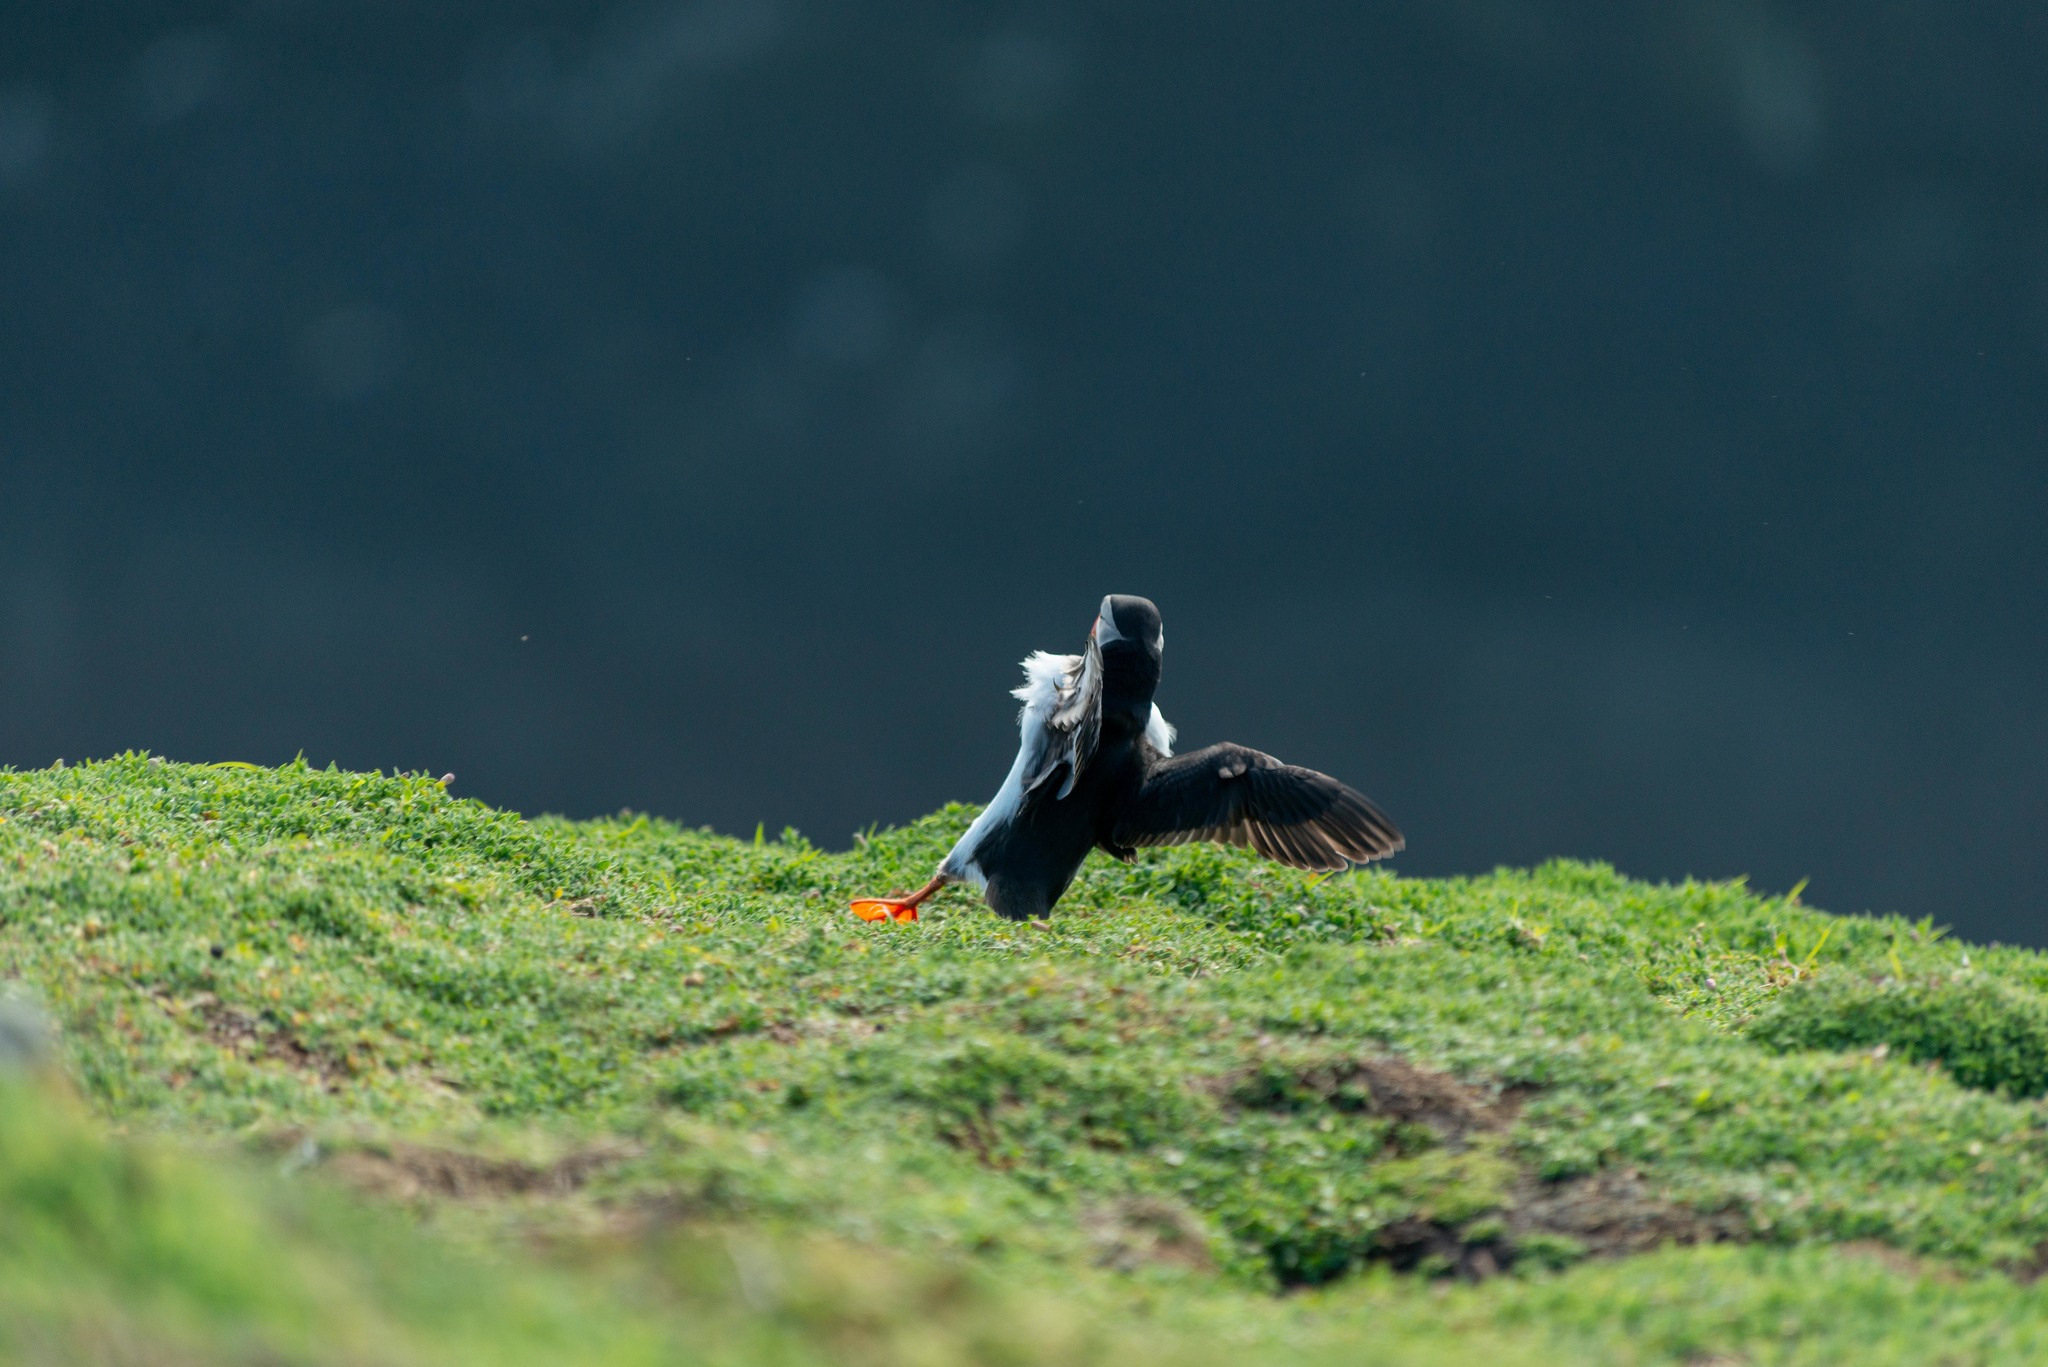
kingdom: Animalia
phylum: Chordata
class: Aves
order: Charadriiformes
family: Alcidae
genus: Fratercula
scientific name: Fratercula arctica
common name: Atlantic puffin
